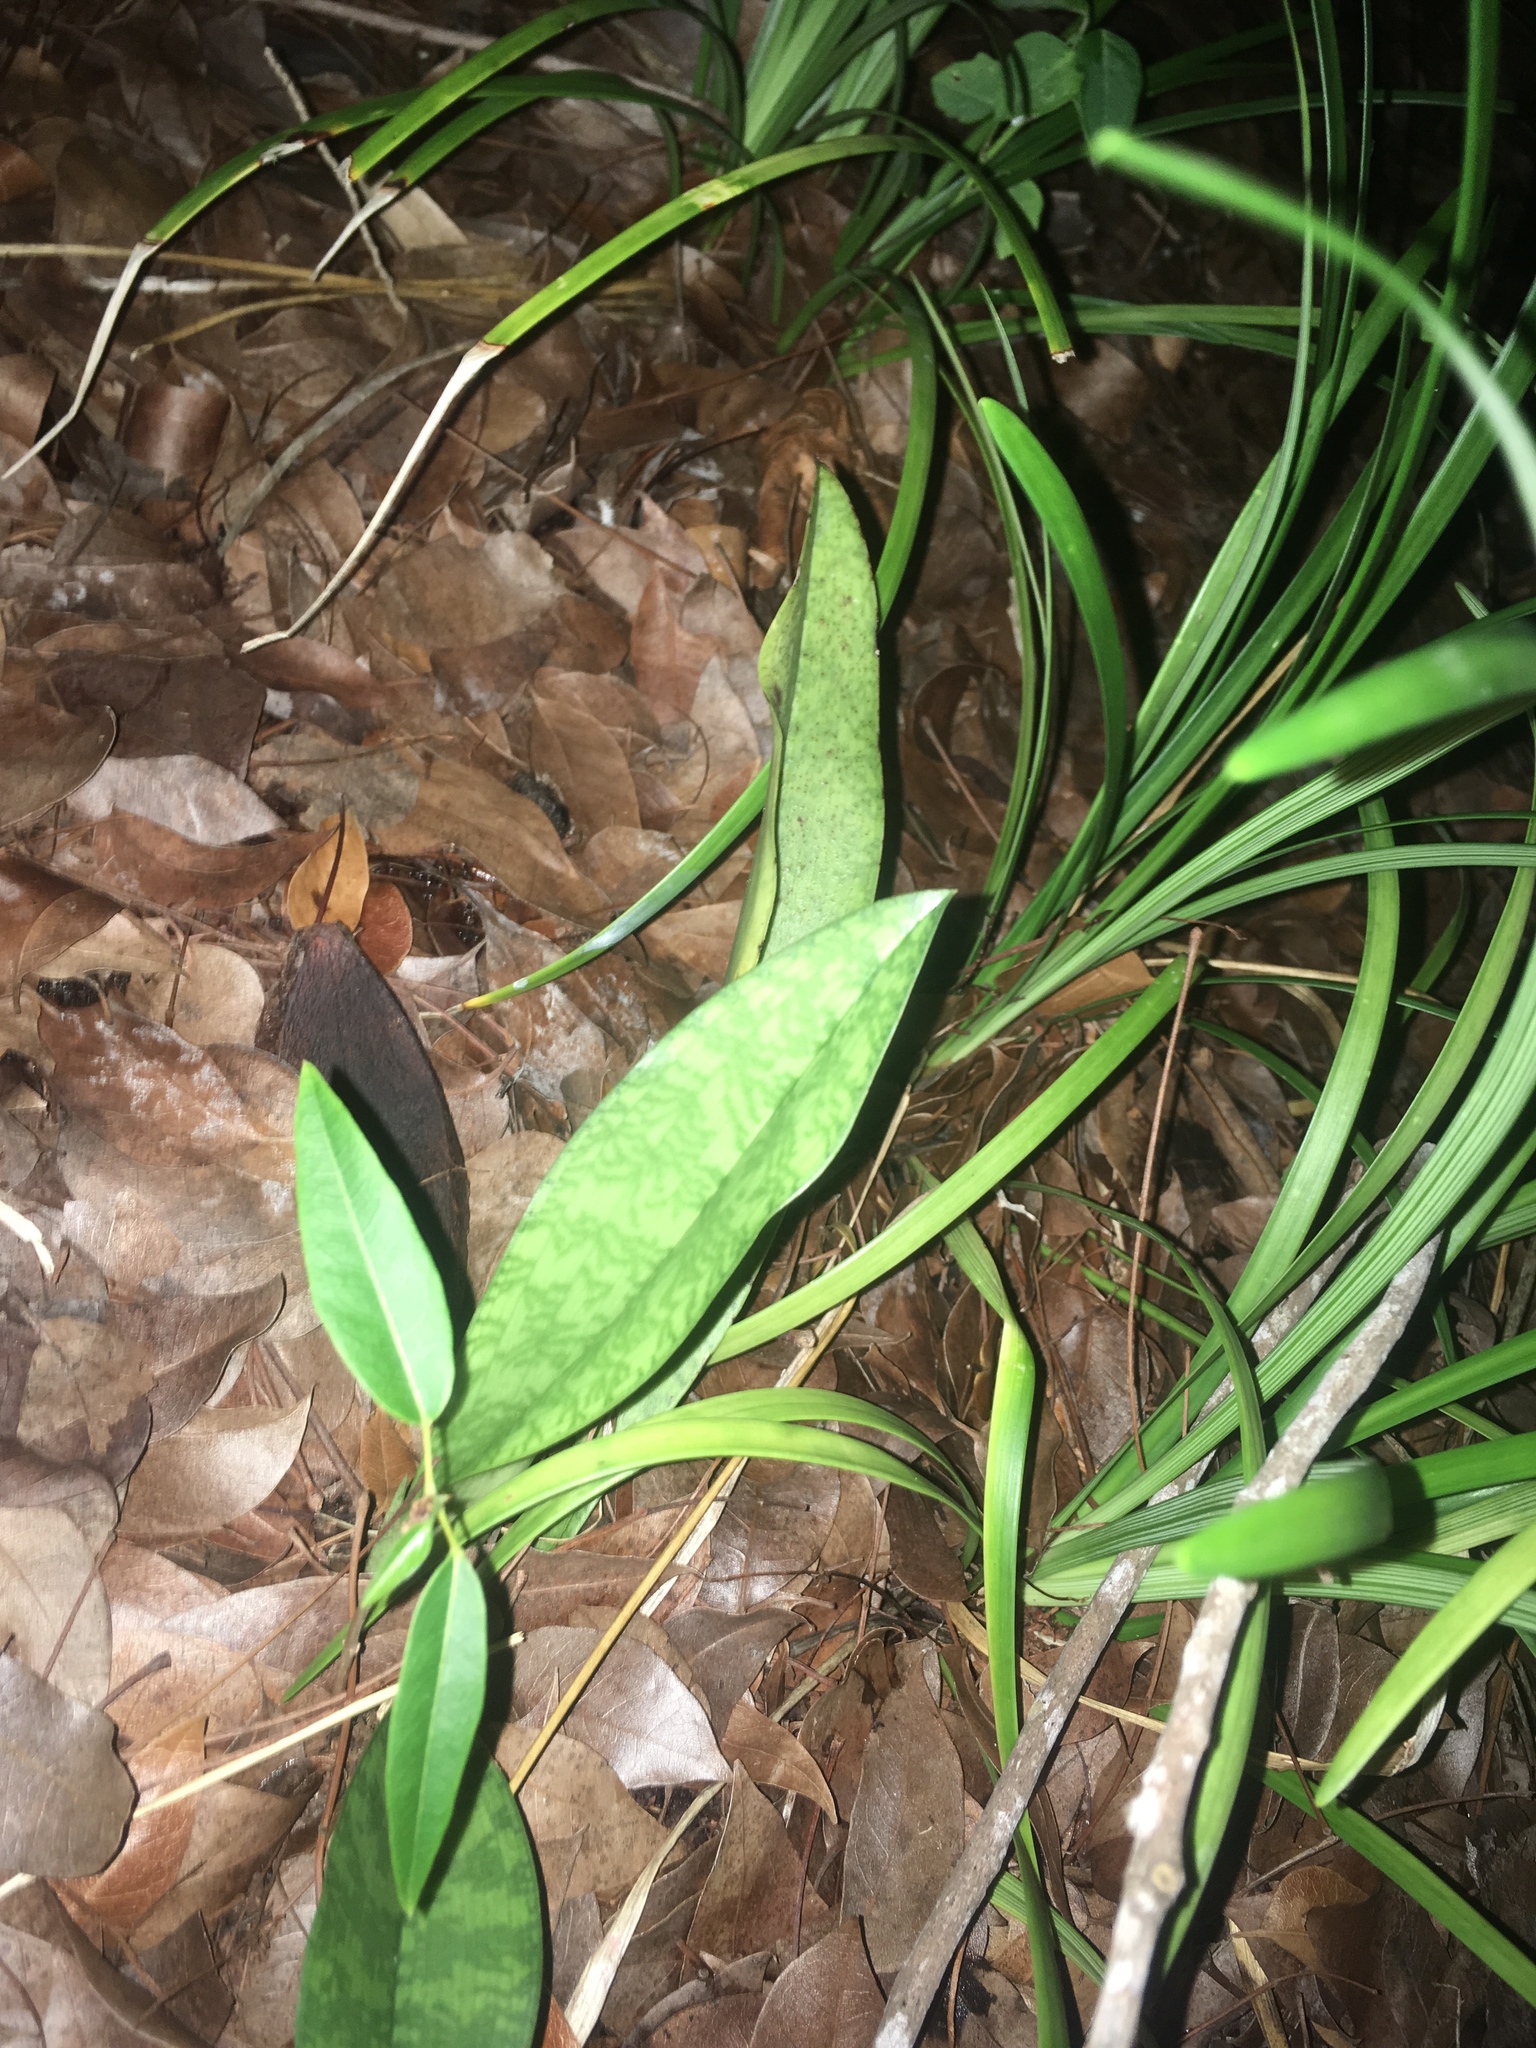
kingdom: Plantae
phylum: Tracheophyta
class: Liliopsida
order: Asparagales
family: Orchidaceae
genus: Eulophia
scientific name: Eulophia maculata
